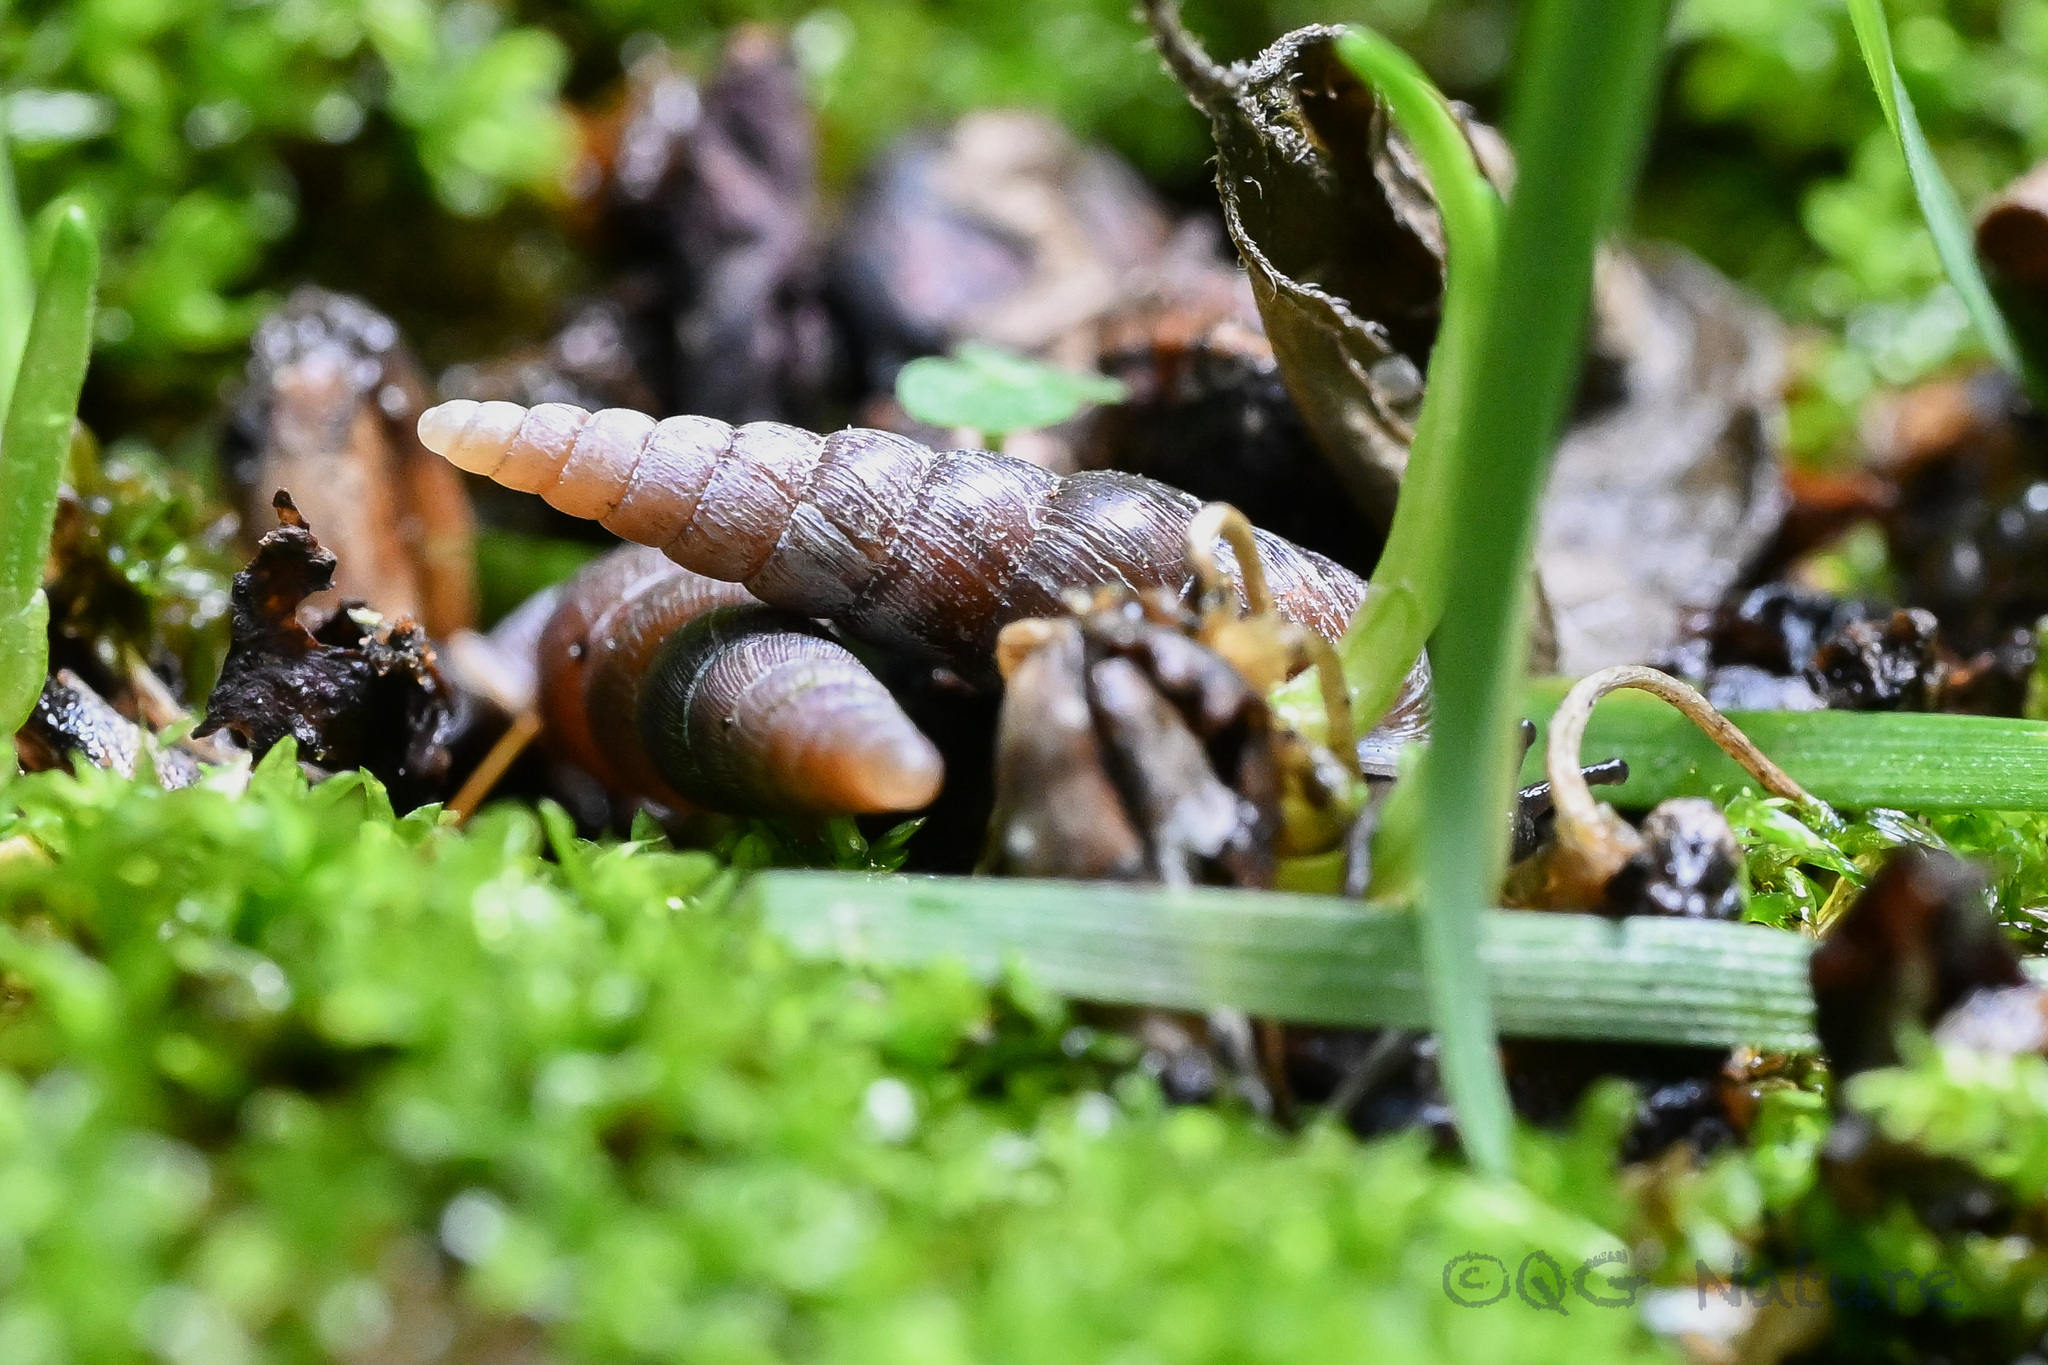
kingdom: Animalia
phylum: Mollusca
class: Gastropoda
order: Stylommatophora
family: Clausiliidae
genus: Euphaedusa
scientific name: Euphaedusa yunnancola
